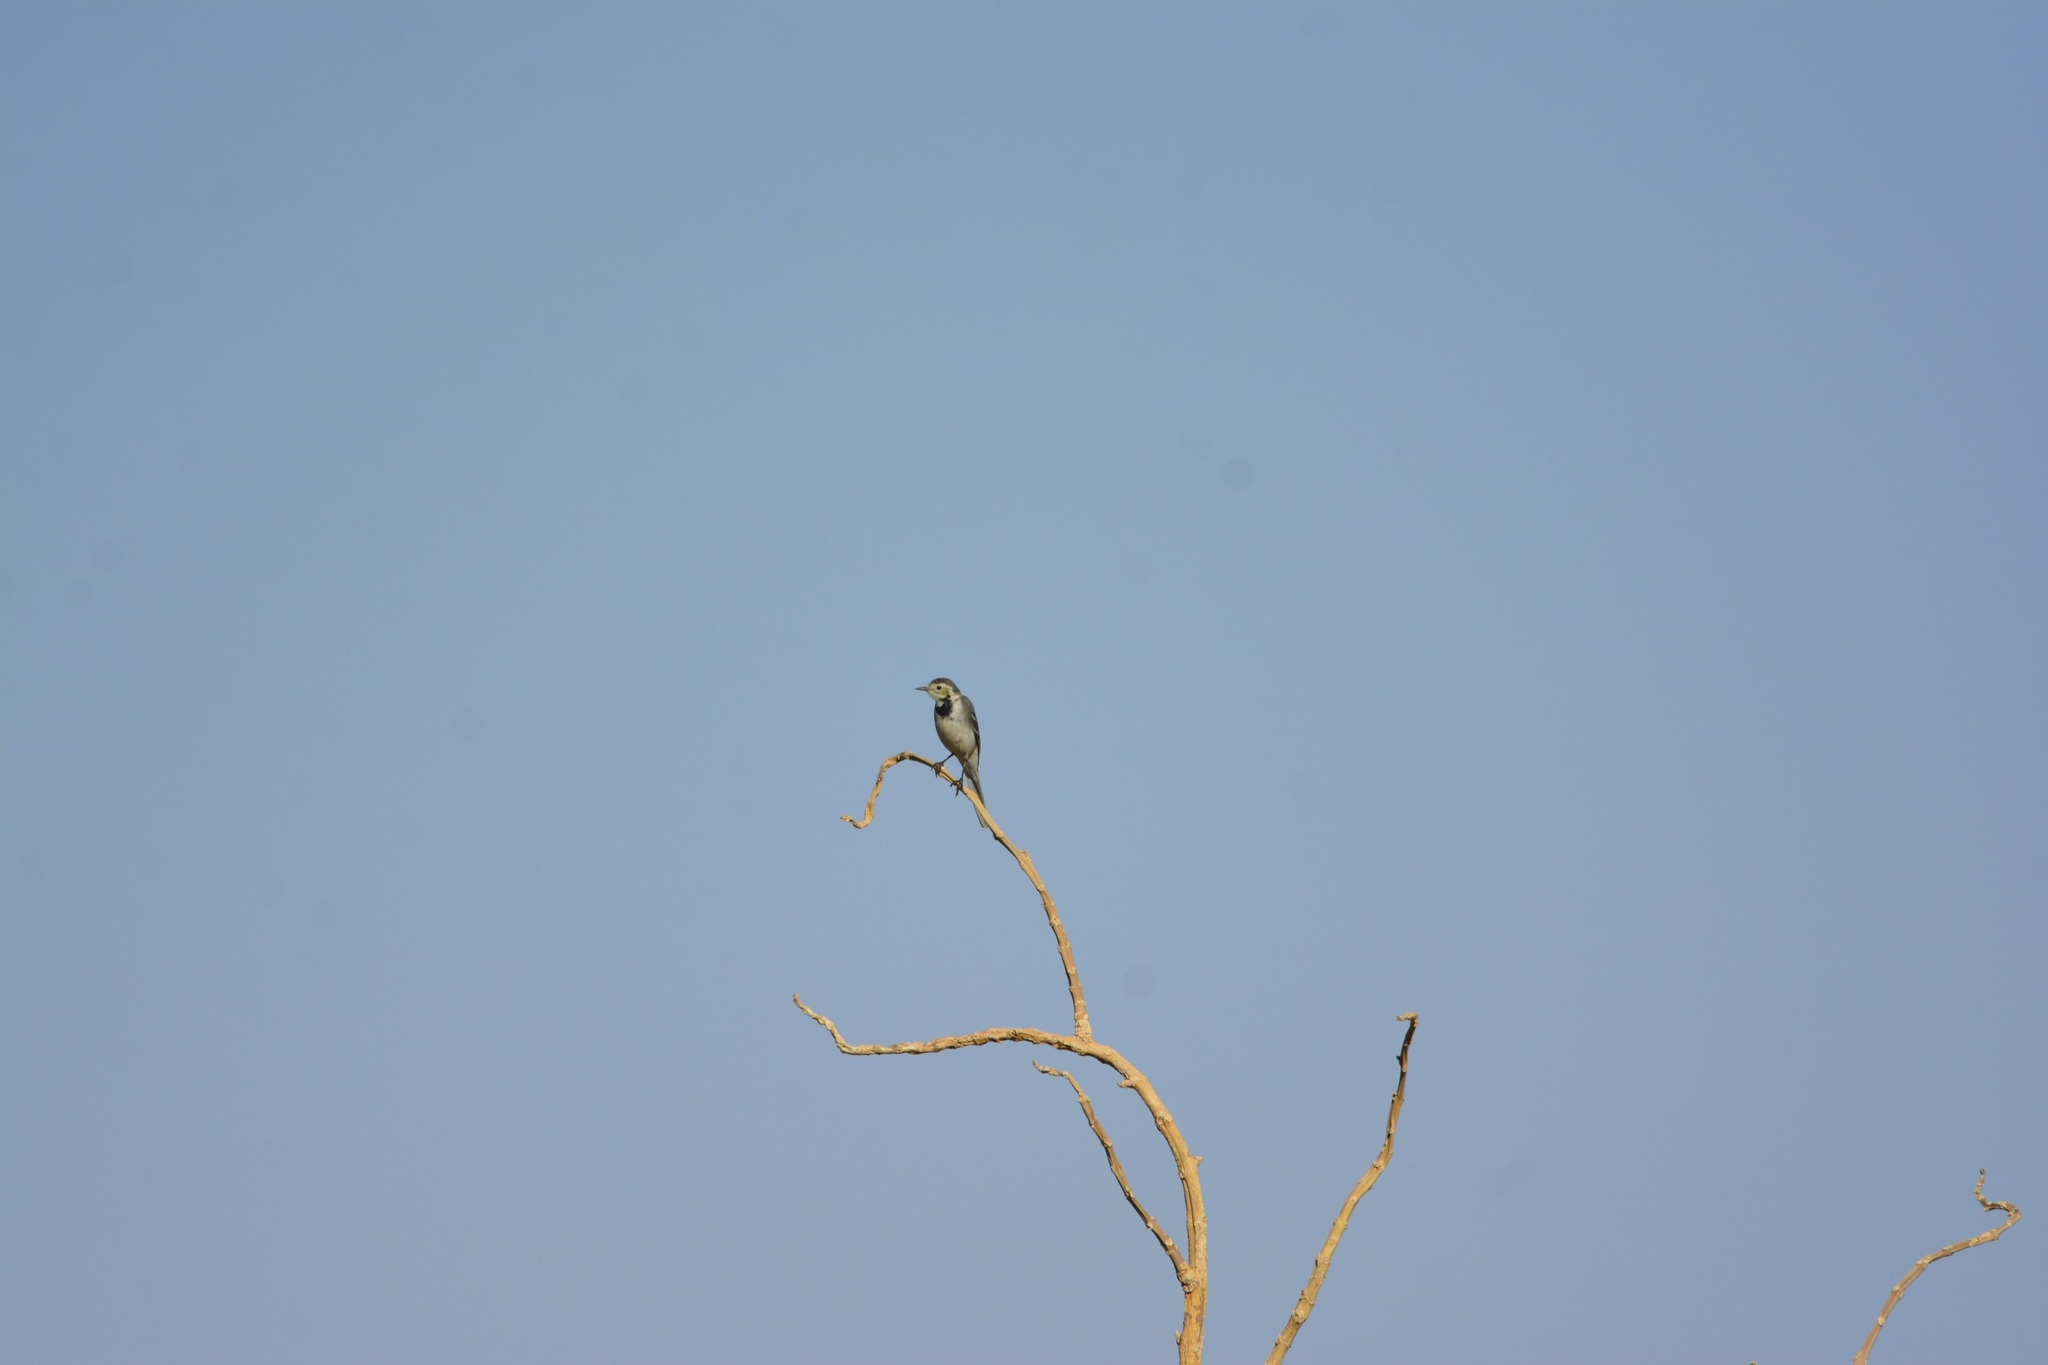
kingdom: Animalia
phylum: Chordata
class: Aves
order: Passeriformes
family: Motacillidae
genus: Motacilla
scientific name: Motacilla alba
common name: White wagtail
